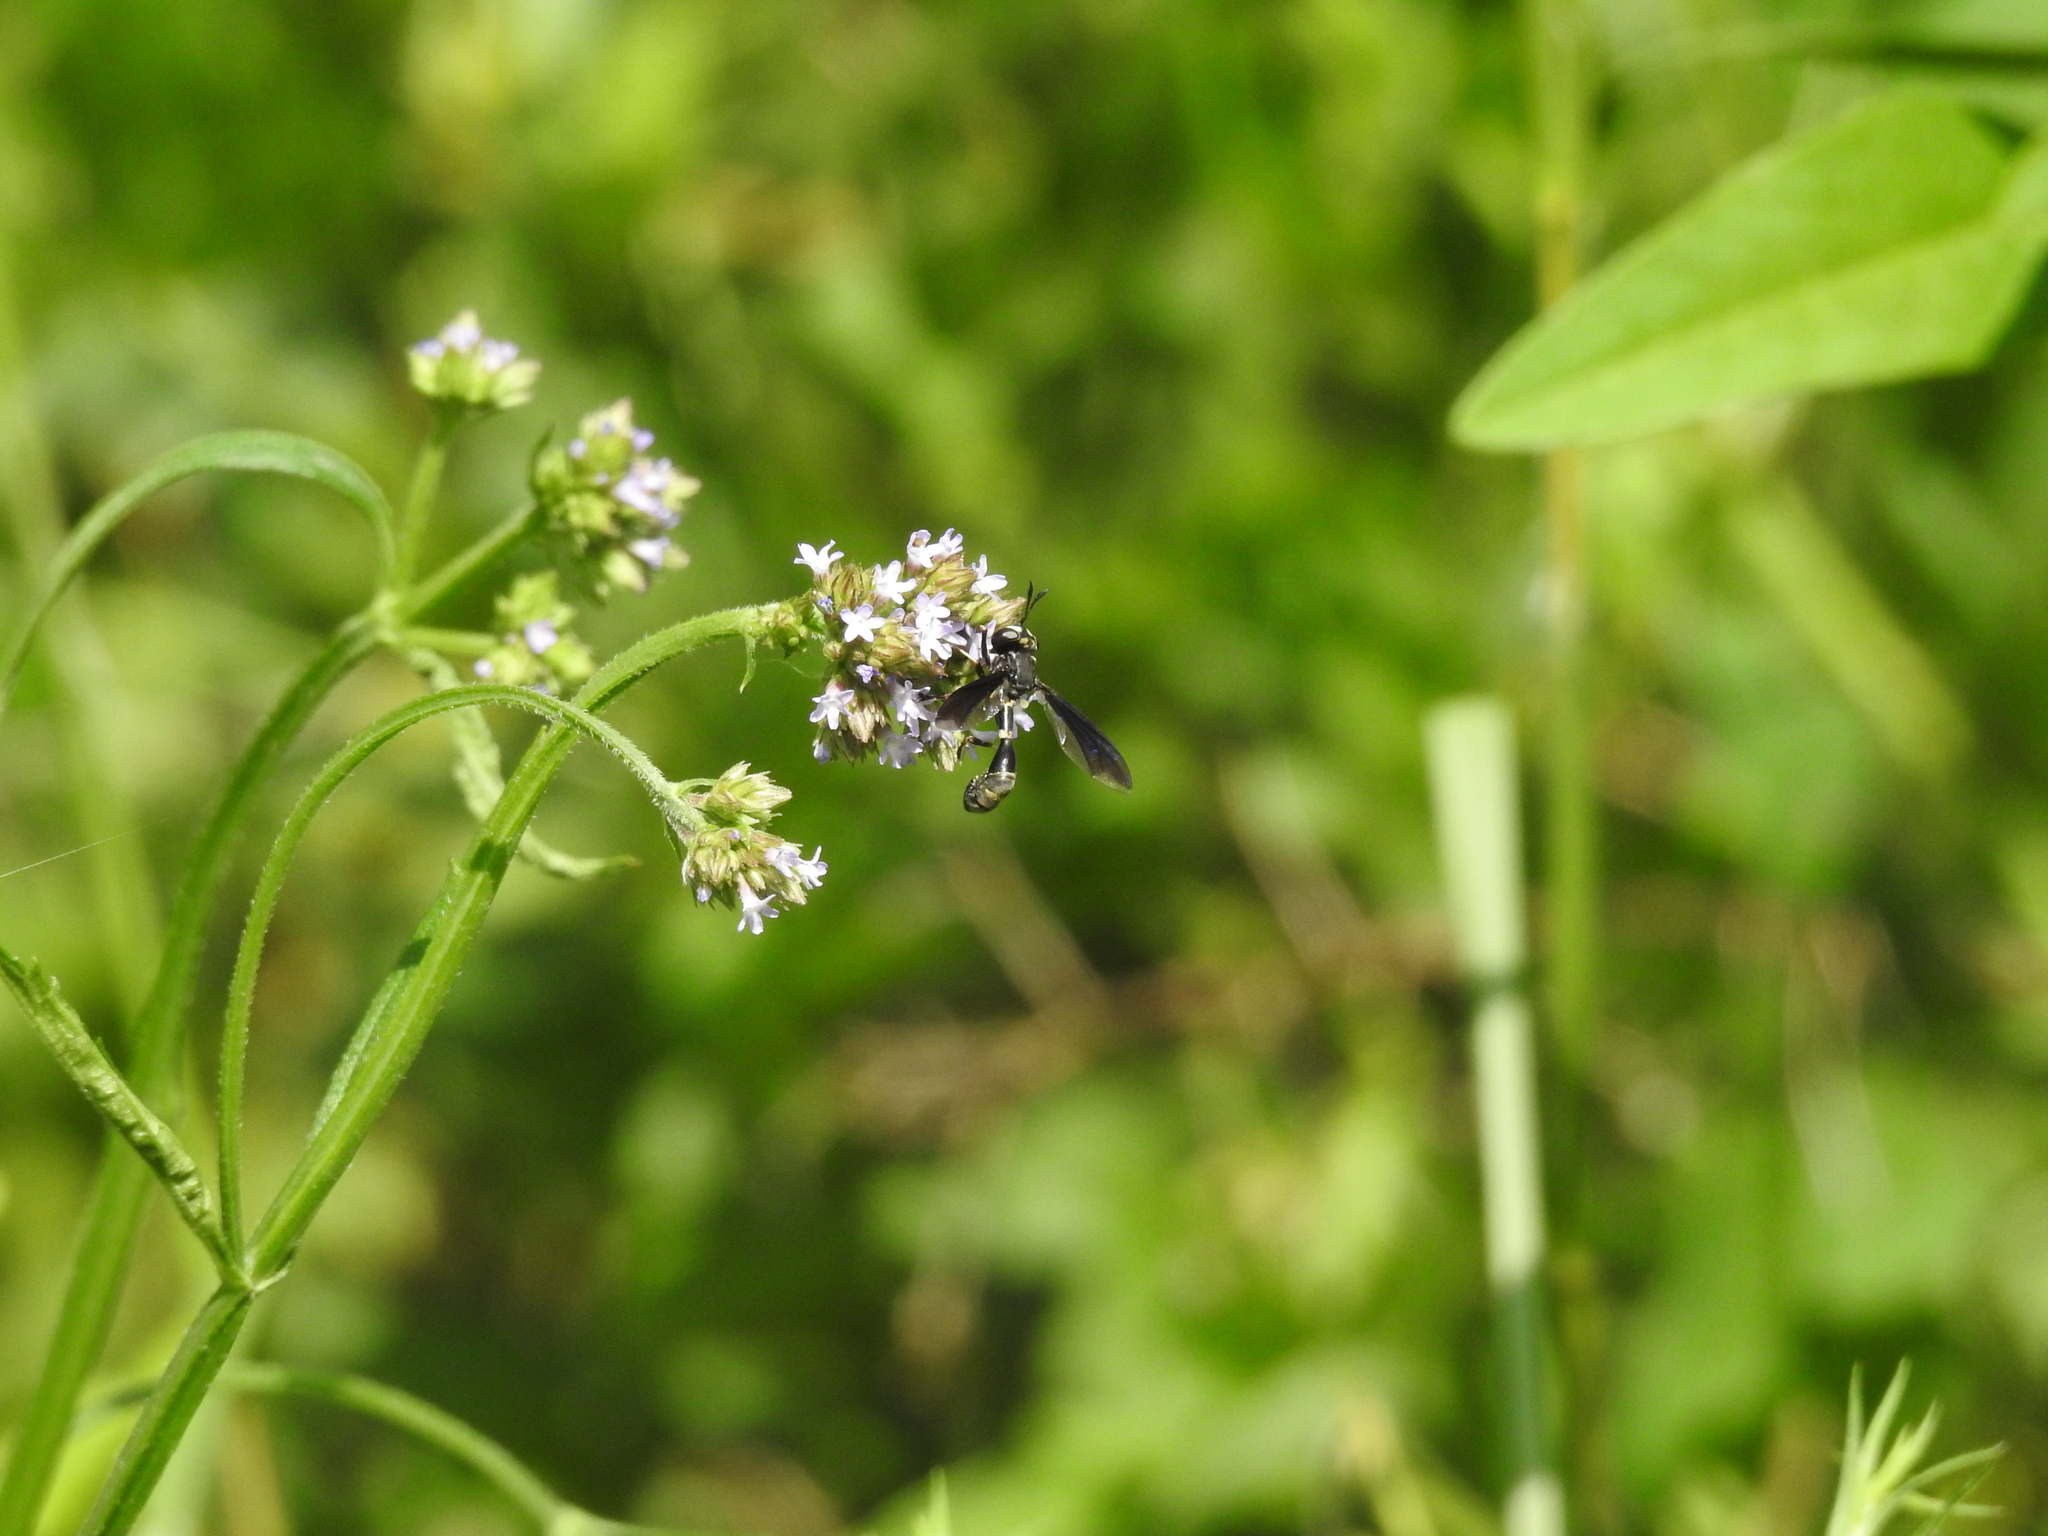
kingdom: Animalia
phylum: Arthropoda
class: Insecta
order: Diptera
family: Conopidae
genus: Physocephala
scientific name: Physocephala tibialis
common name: Common eastern physocephala
